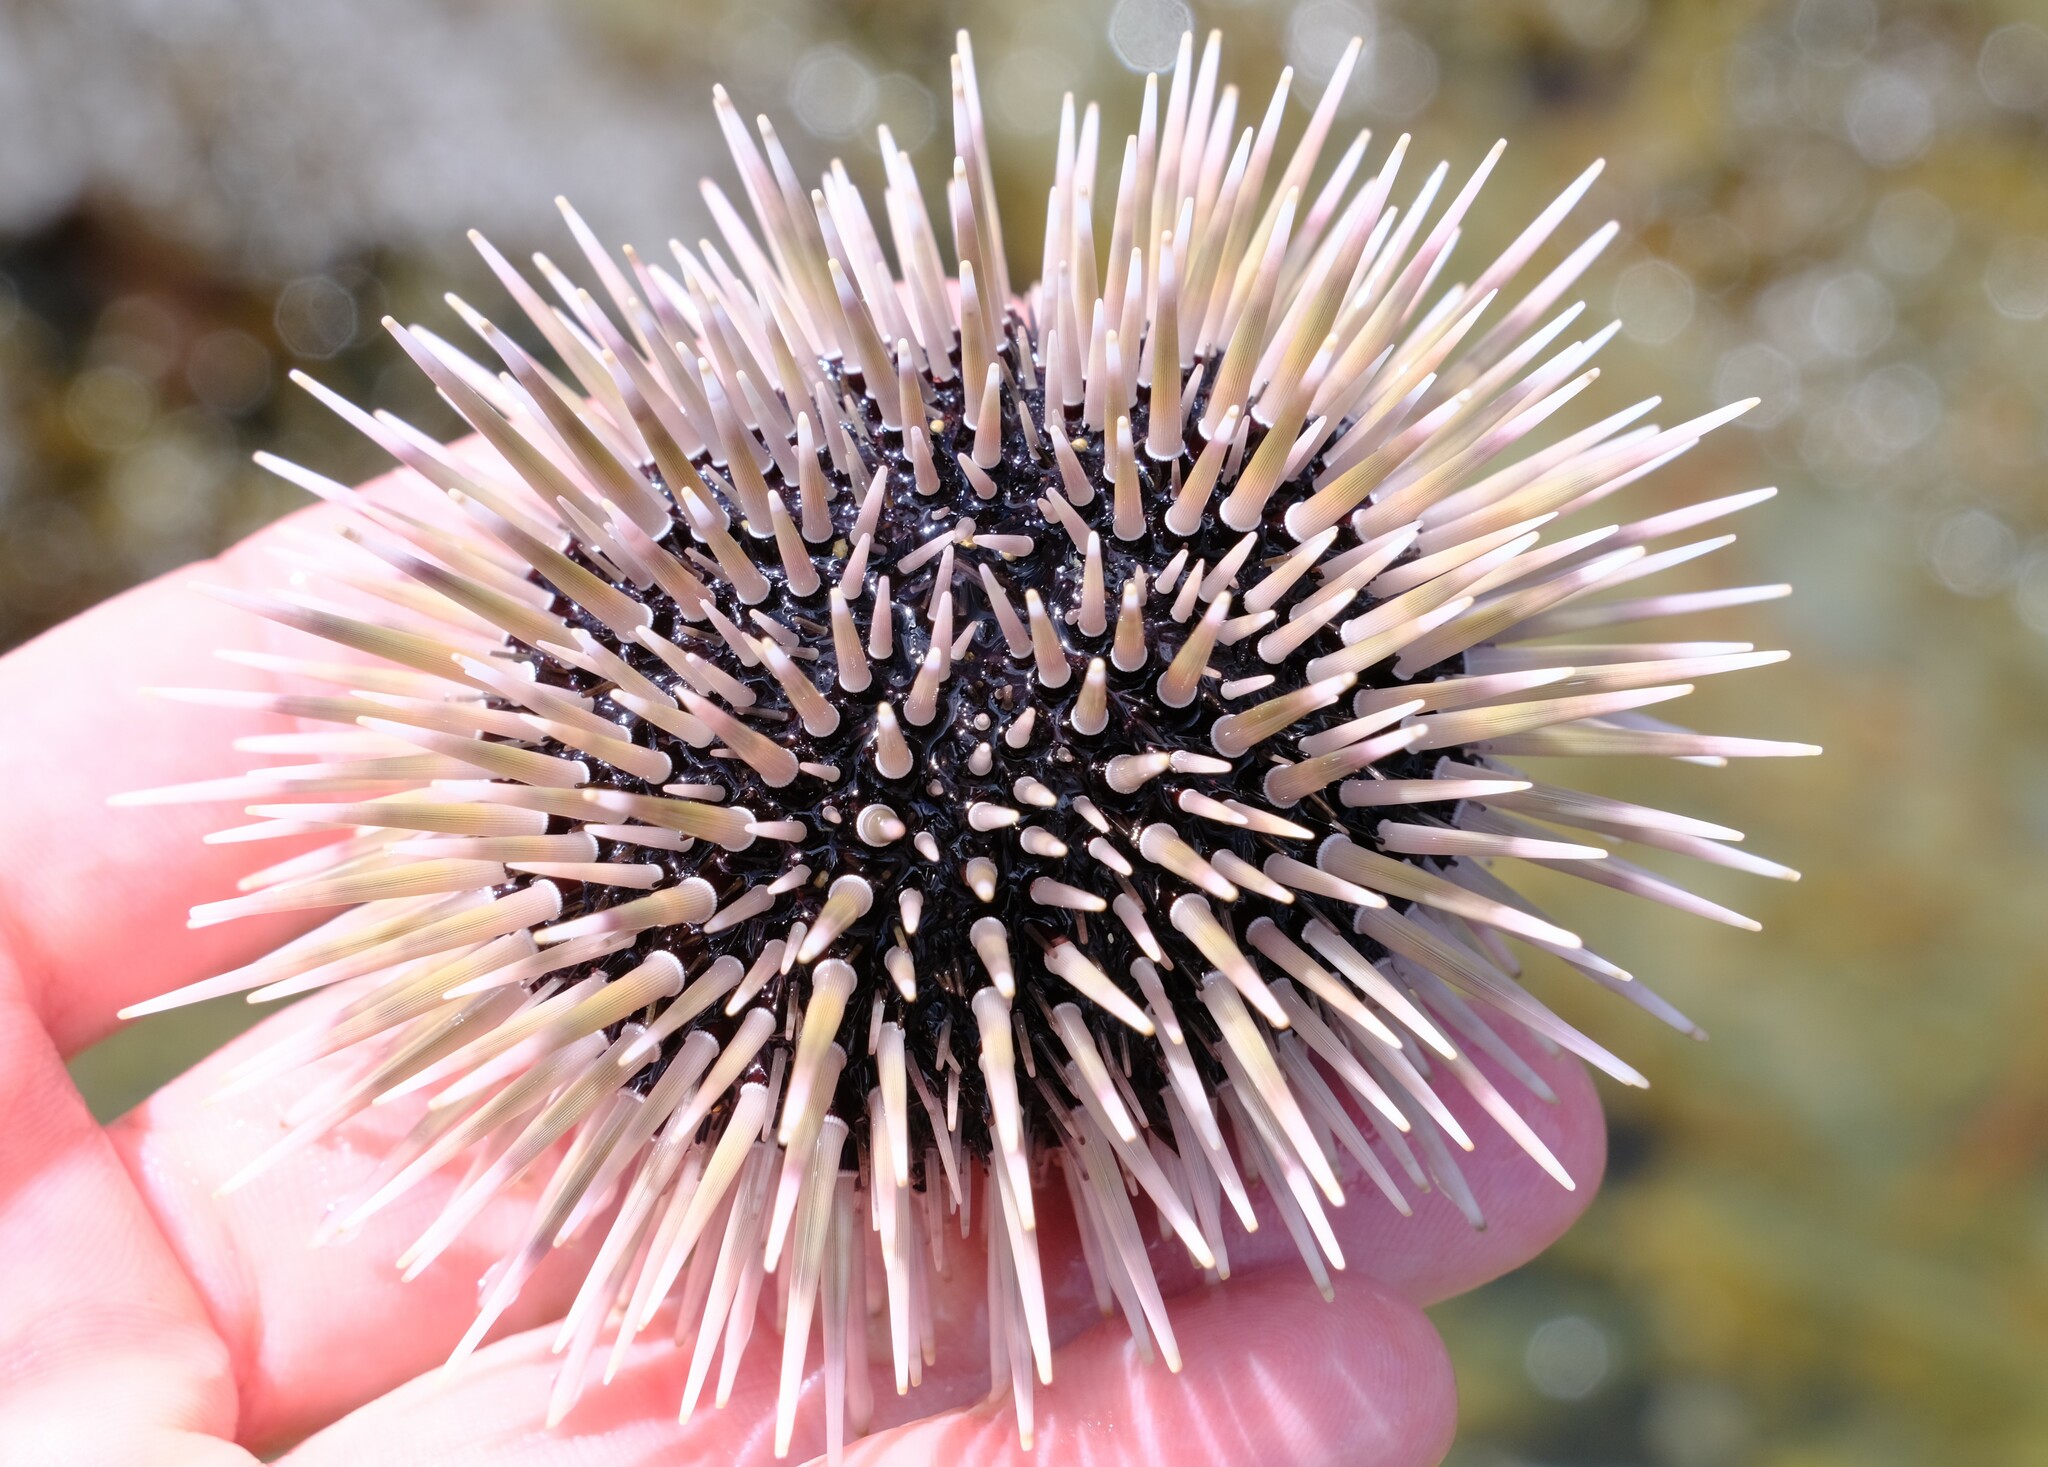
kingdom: Animalia
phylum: Echinodermata
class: Echinoidea
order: Camarodonta
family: Echinometridae
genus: Echinometra
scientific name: Echinometra mathaei
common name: Rock-boring urchin
